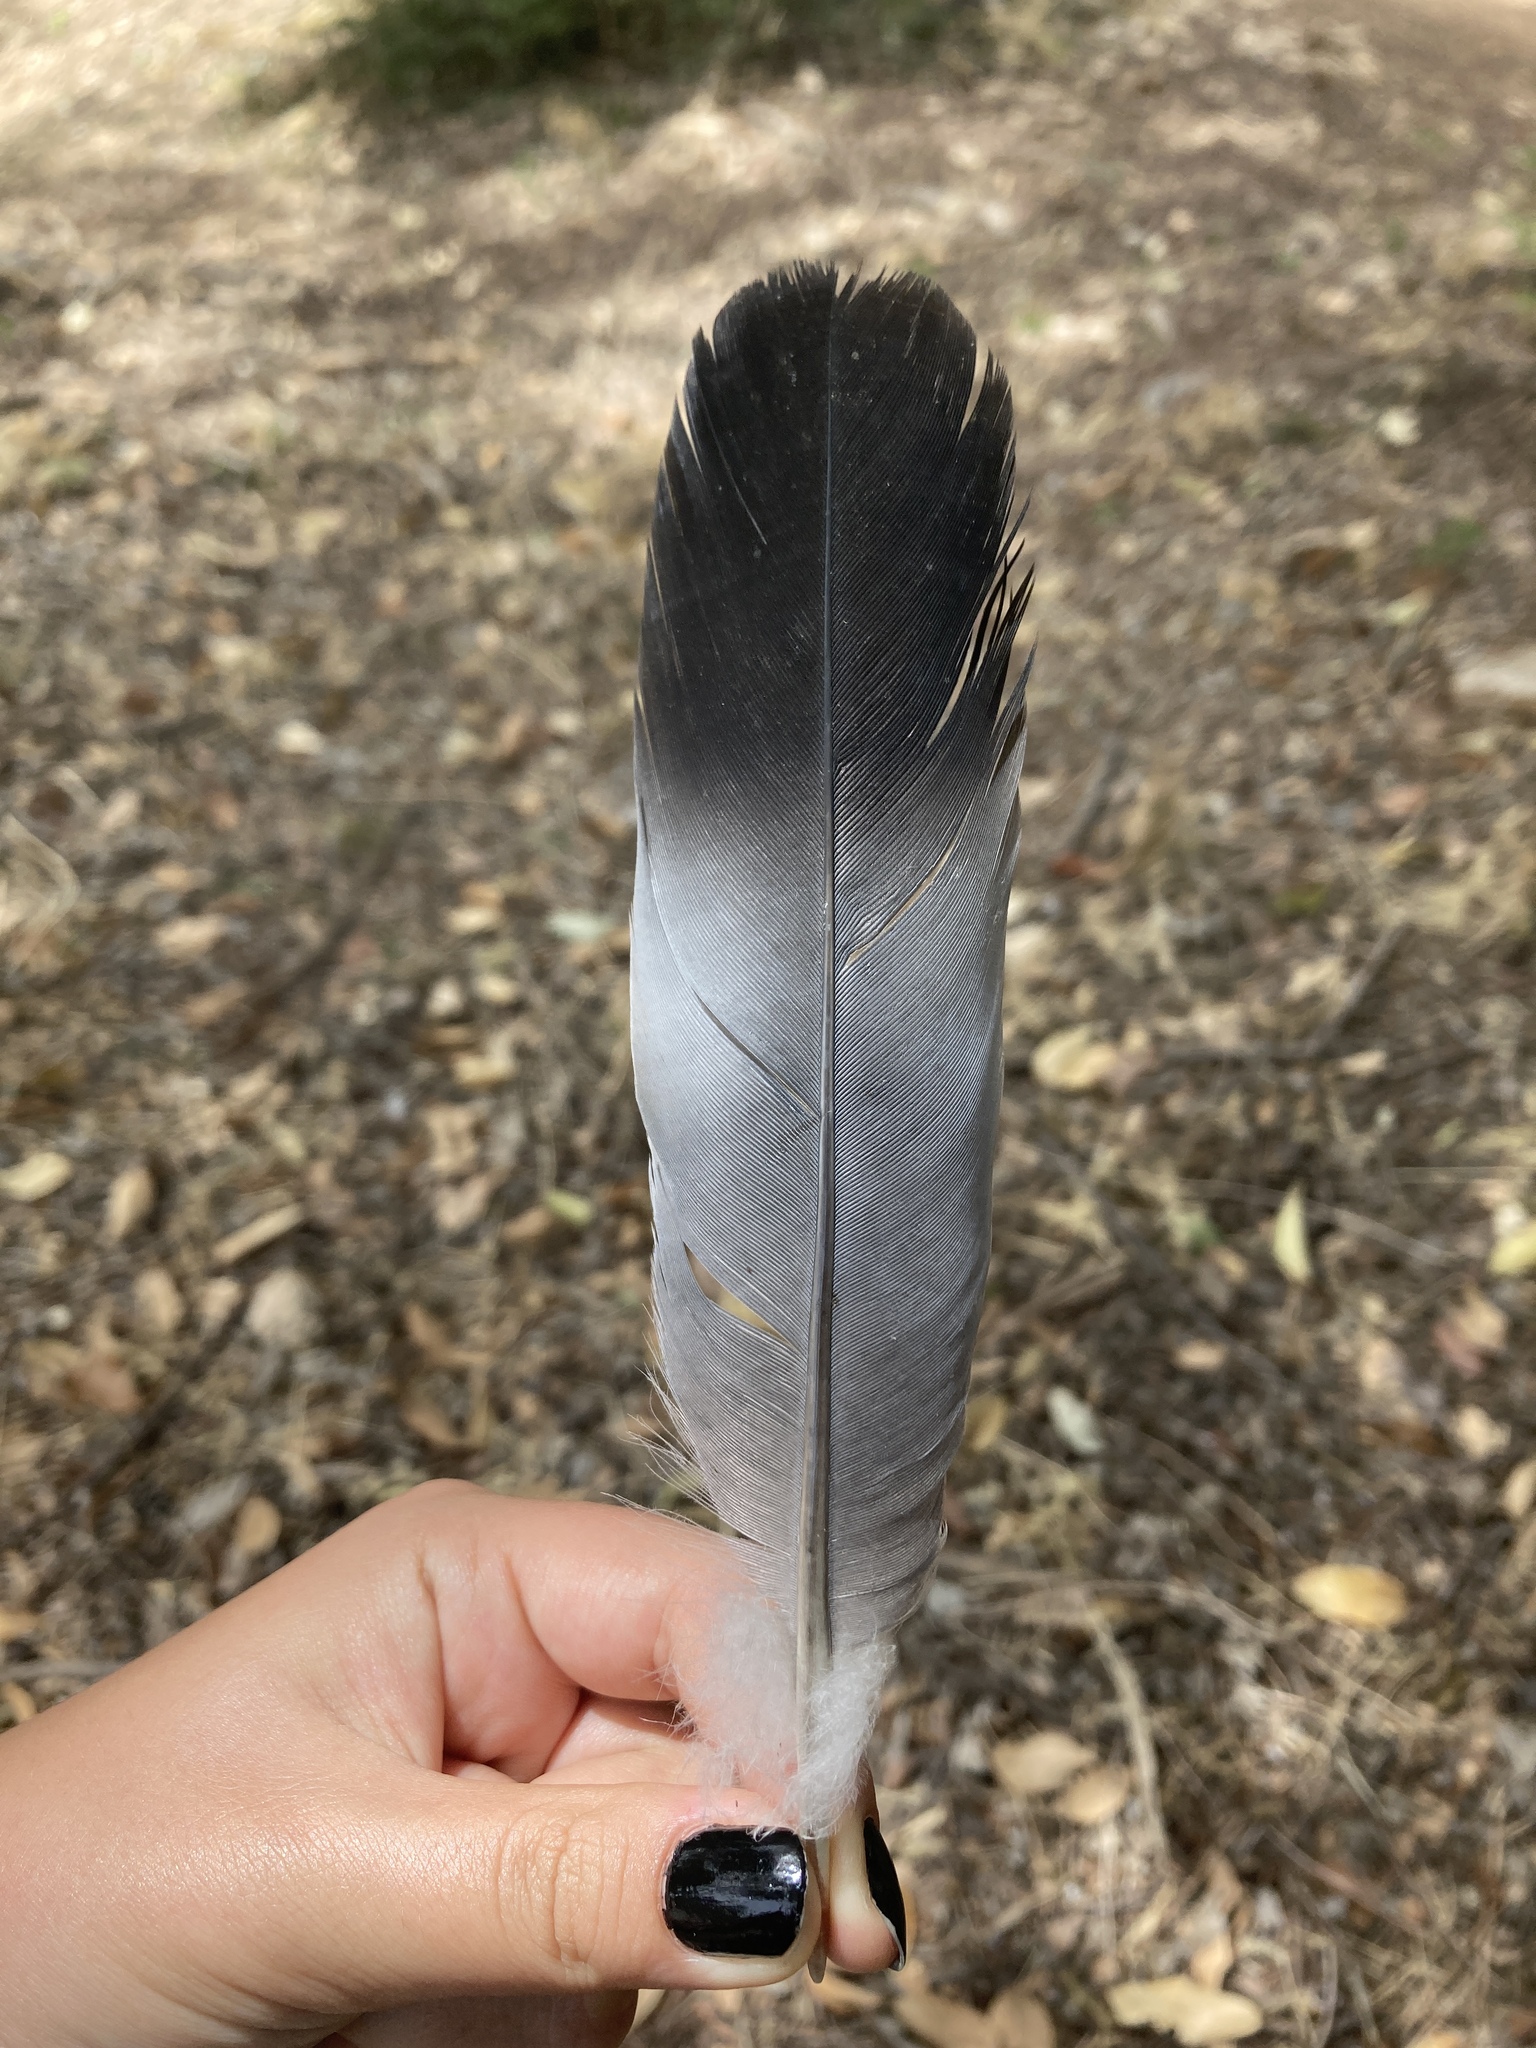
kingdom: Animalia
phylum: Chordata
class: Aves
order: Columbiformes
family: Columbidae
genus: Columba
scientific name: Columba palumbus
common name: Common wood pigeon
